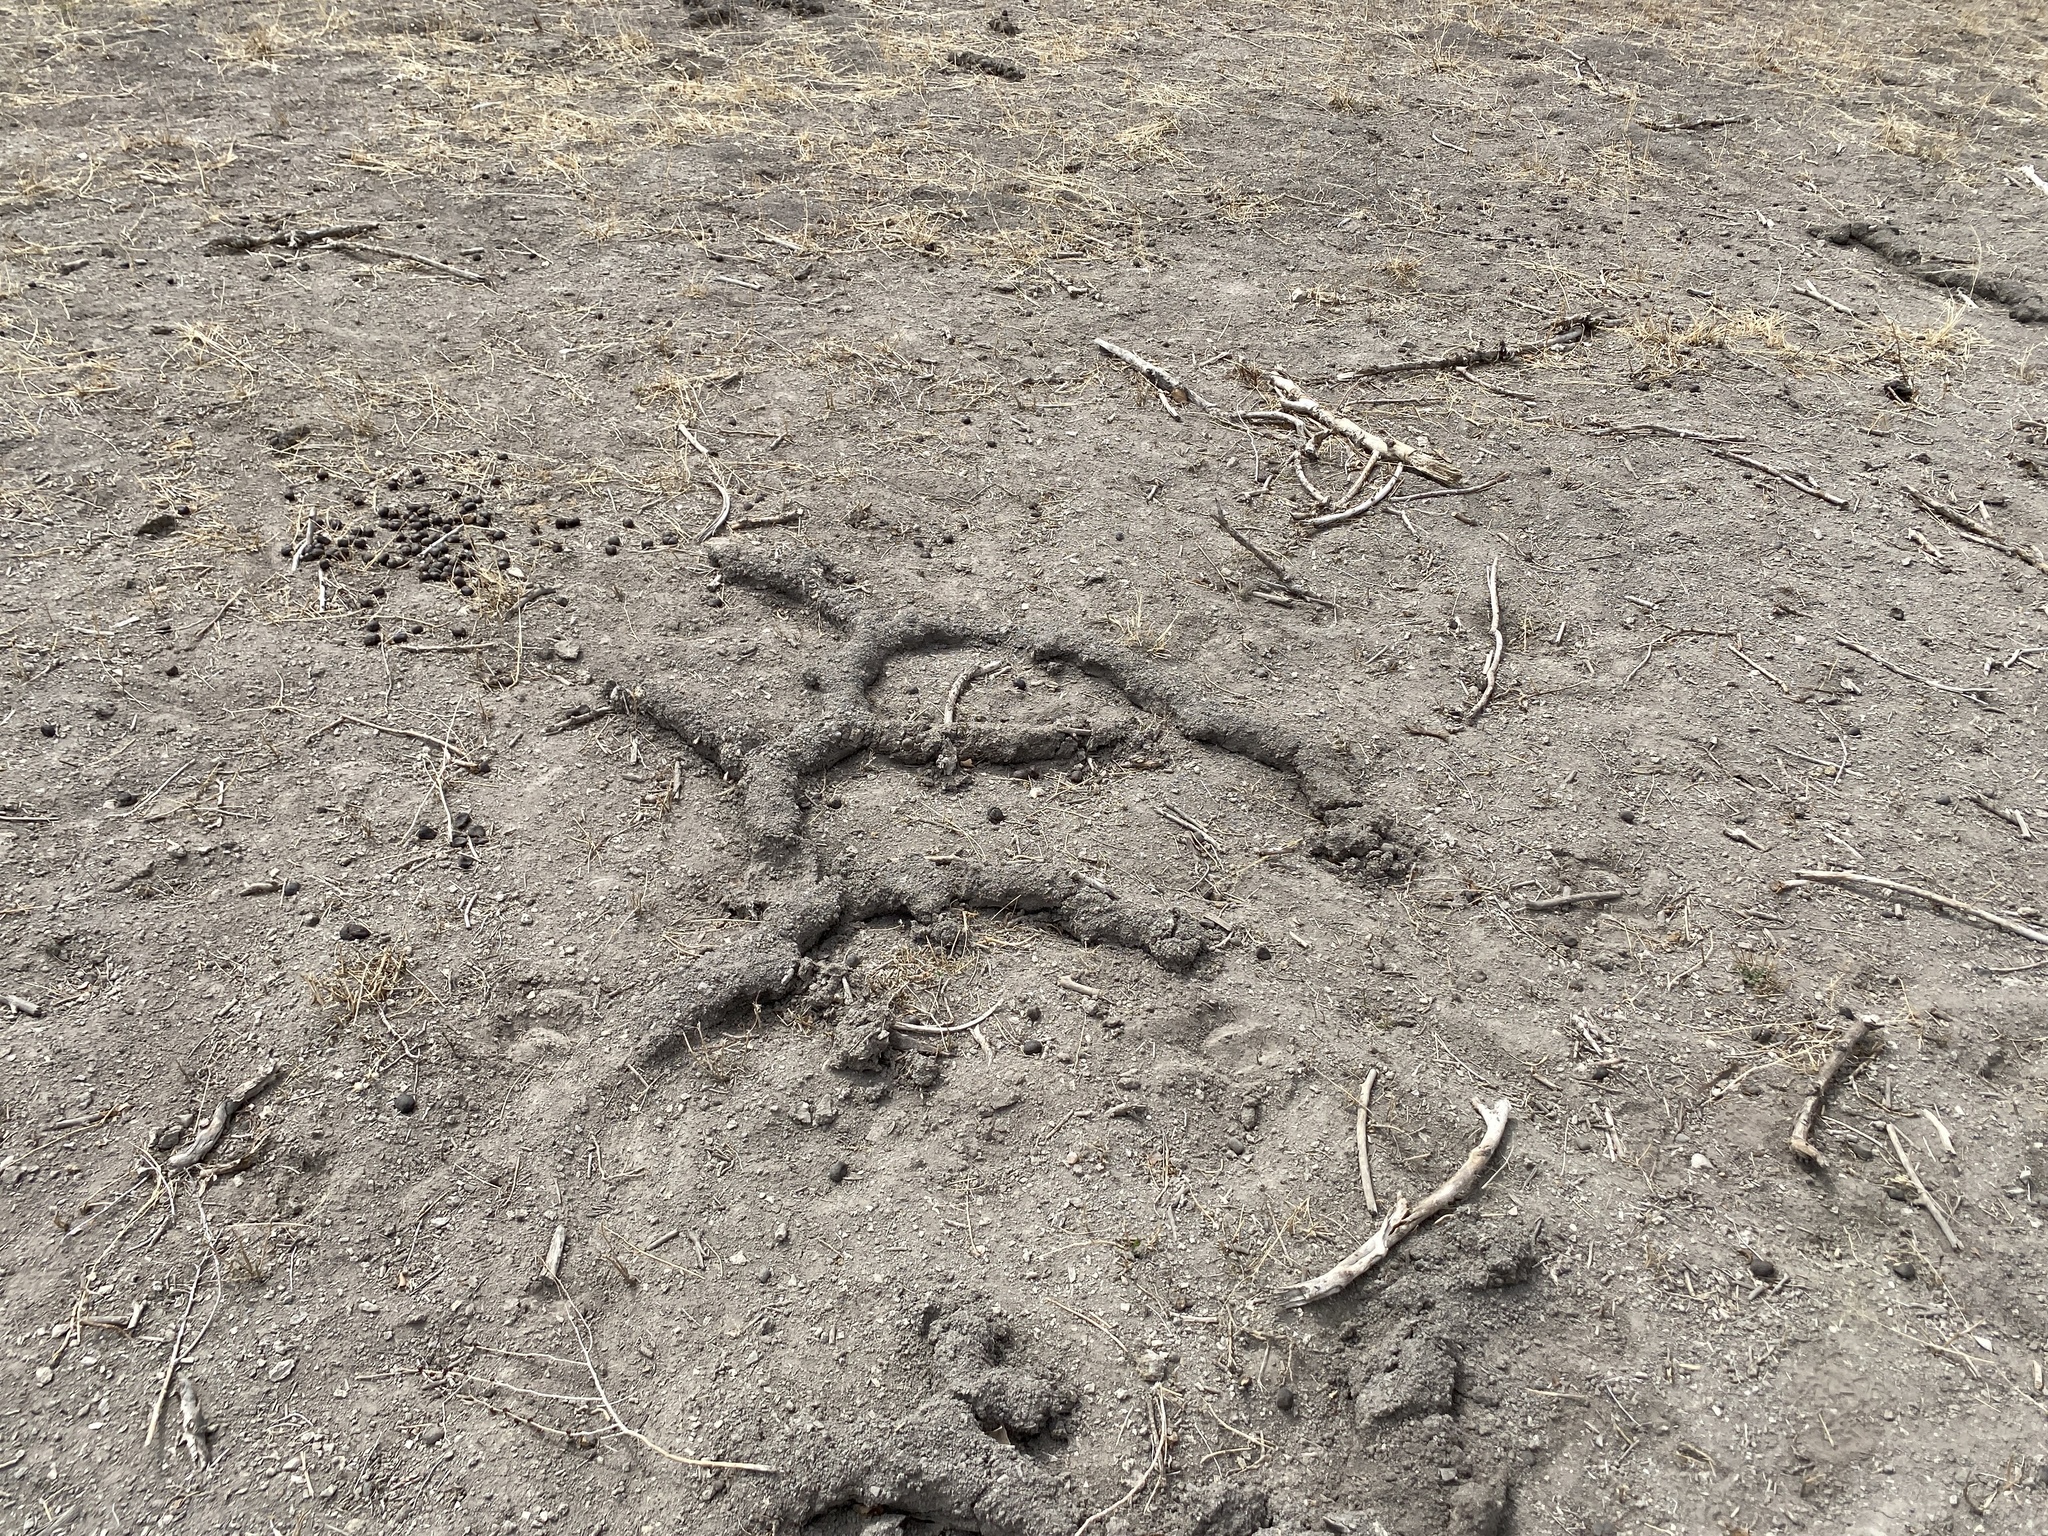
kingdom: Animalia
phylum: Chordata
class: Mammalia
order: Rodentia
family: Geomyidae
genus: Thomomys
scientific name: Thomomys bottae
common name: Botta's pocket gopher
